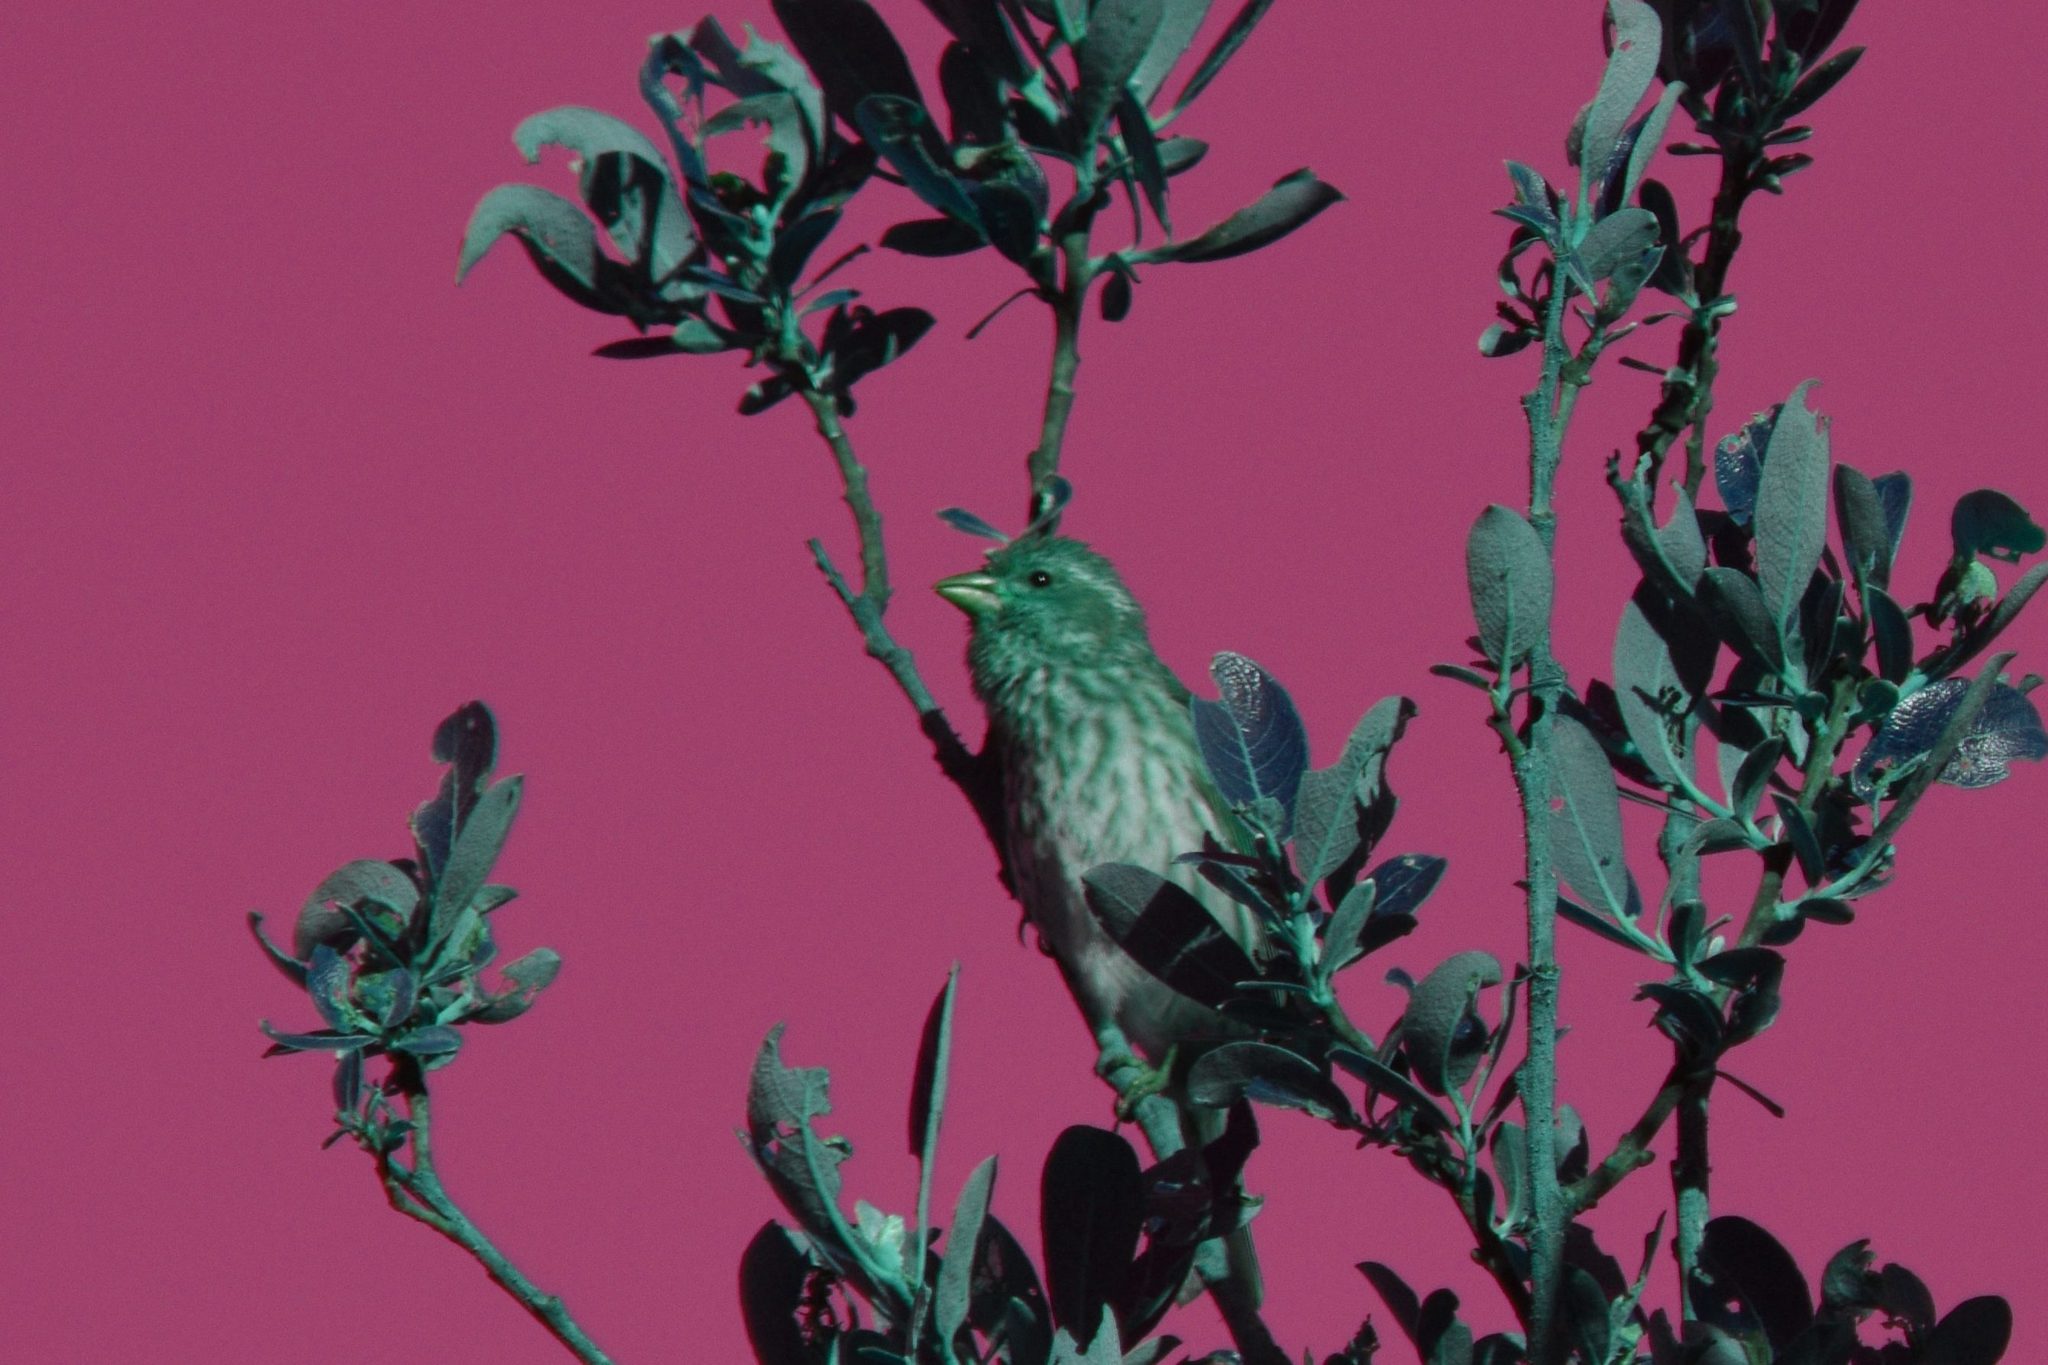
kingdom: Animalia
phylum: Chordata
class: Aves
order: Passeriformes
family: Fringillidae
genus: Haemorhous
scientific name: Haemorhous purpureus
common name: Purple finch
